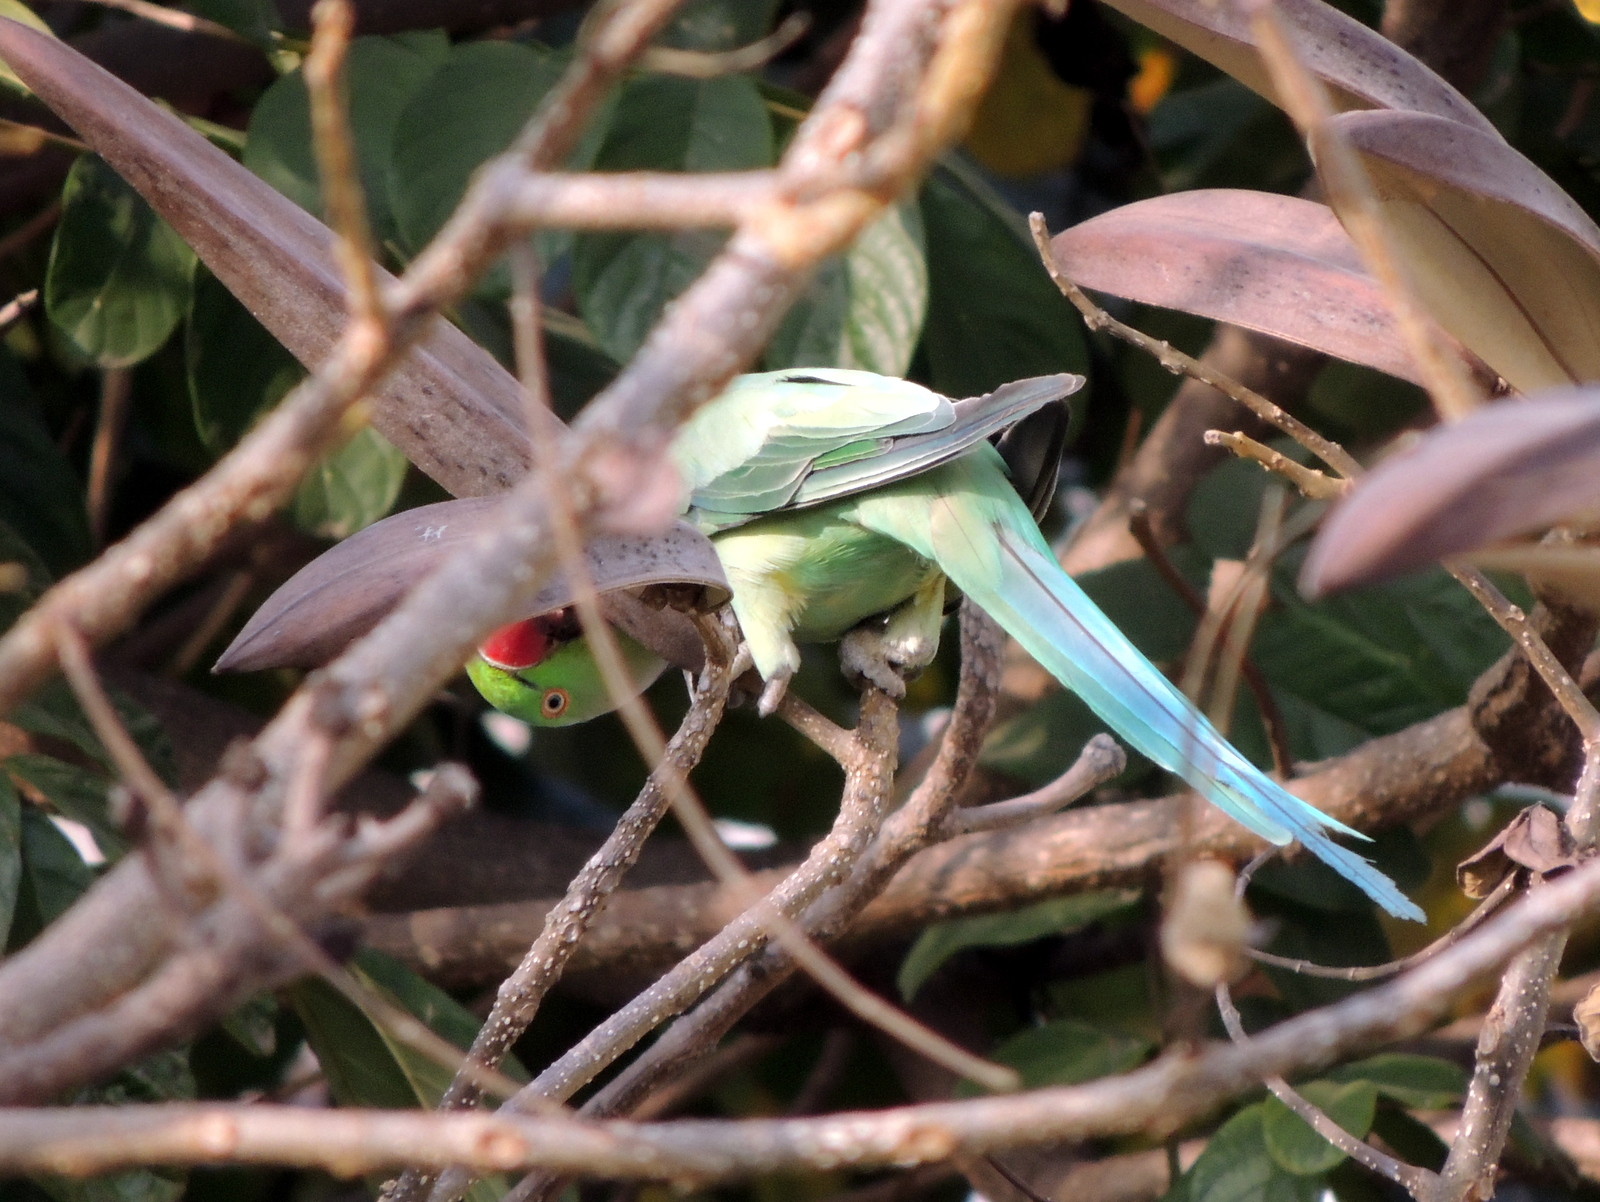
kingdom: Animalia
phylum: Chordata
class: Aves
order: Psittaciformes
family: Psittacidae
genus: Psittacula
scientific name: Psittacula krameri
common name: Rose-ringed parakeet
